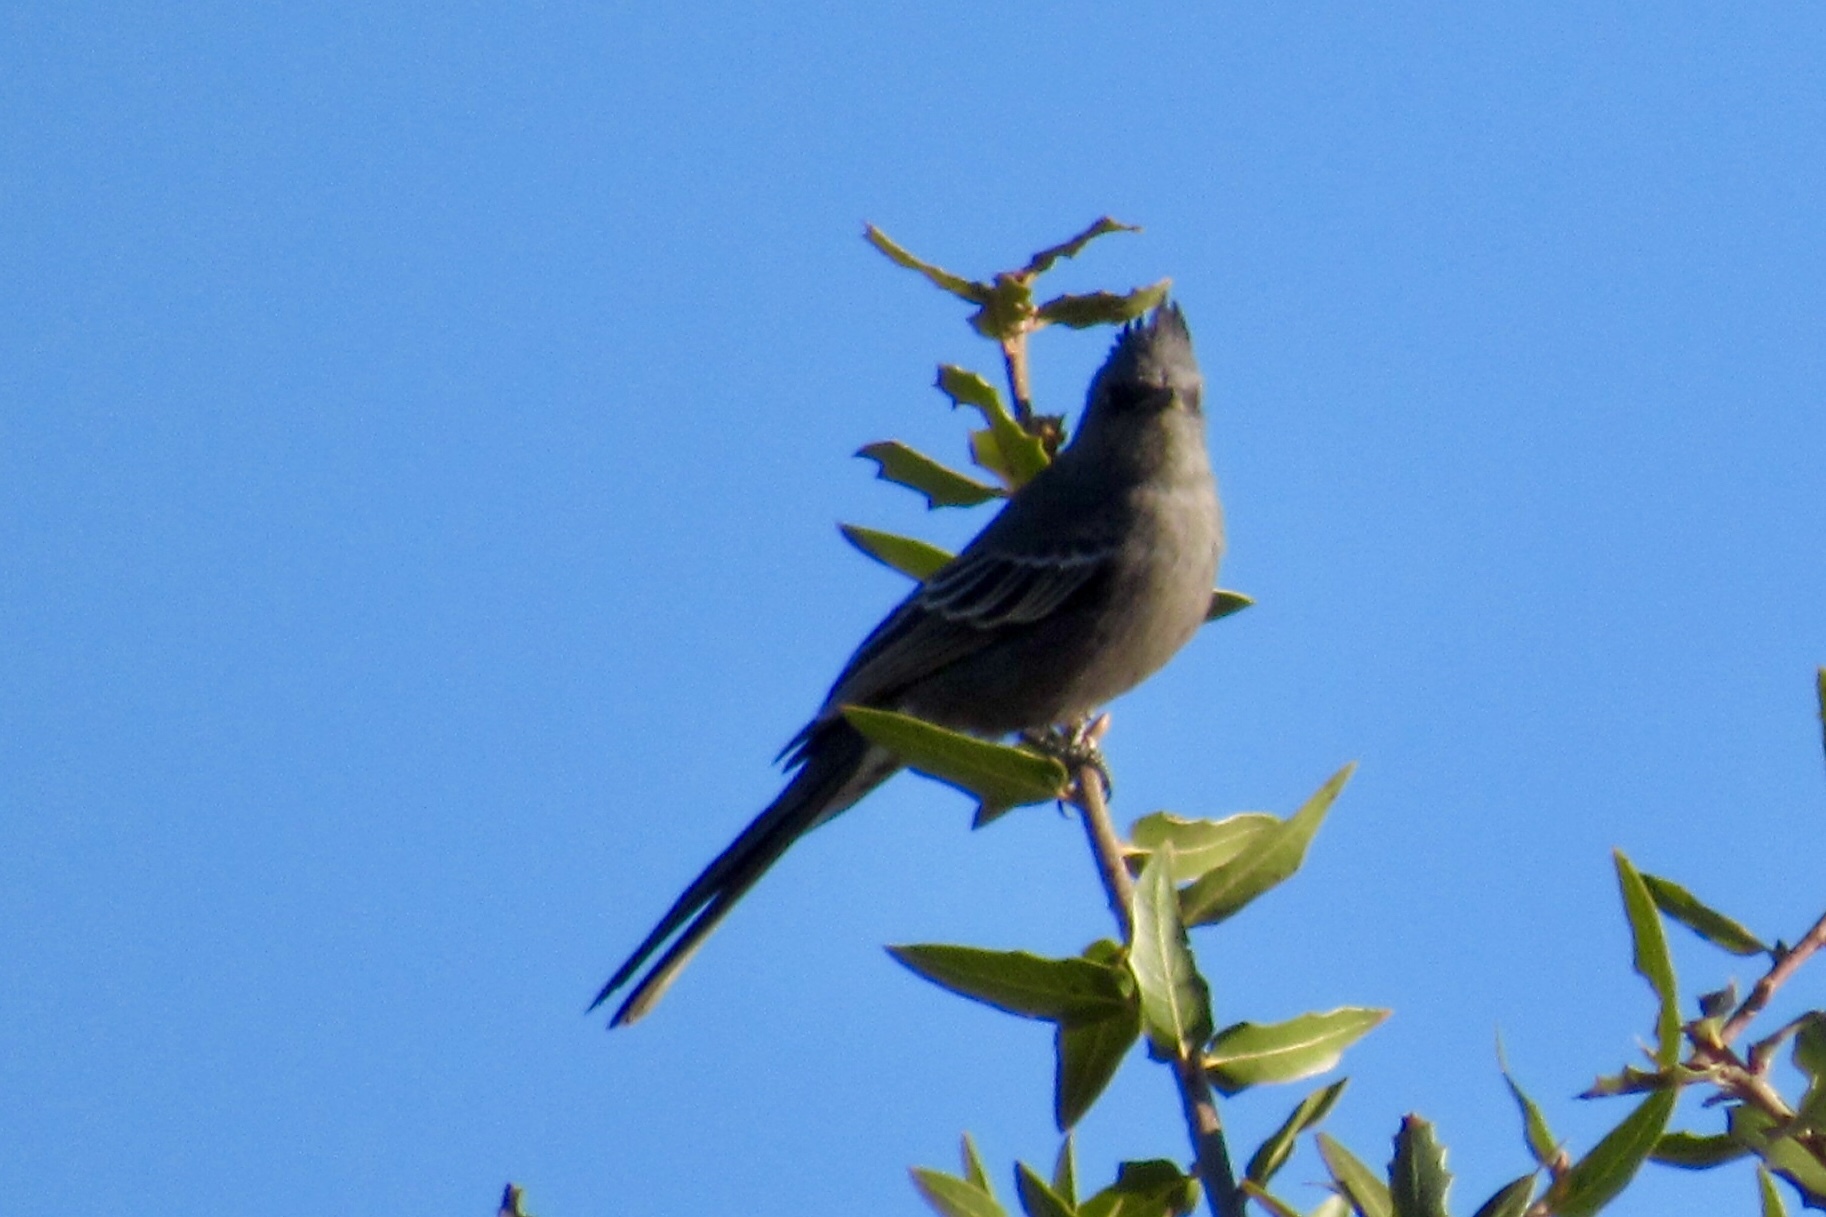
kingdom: Animalia
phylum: Chordata
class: Aves
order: Passeriformes
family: Ptilogonatidae
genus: Phainopepla
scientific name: Phainopepla nitens
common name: Phainopepla
